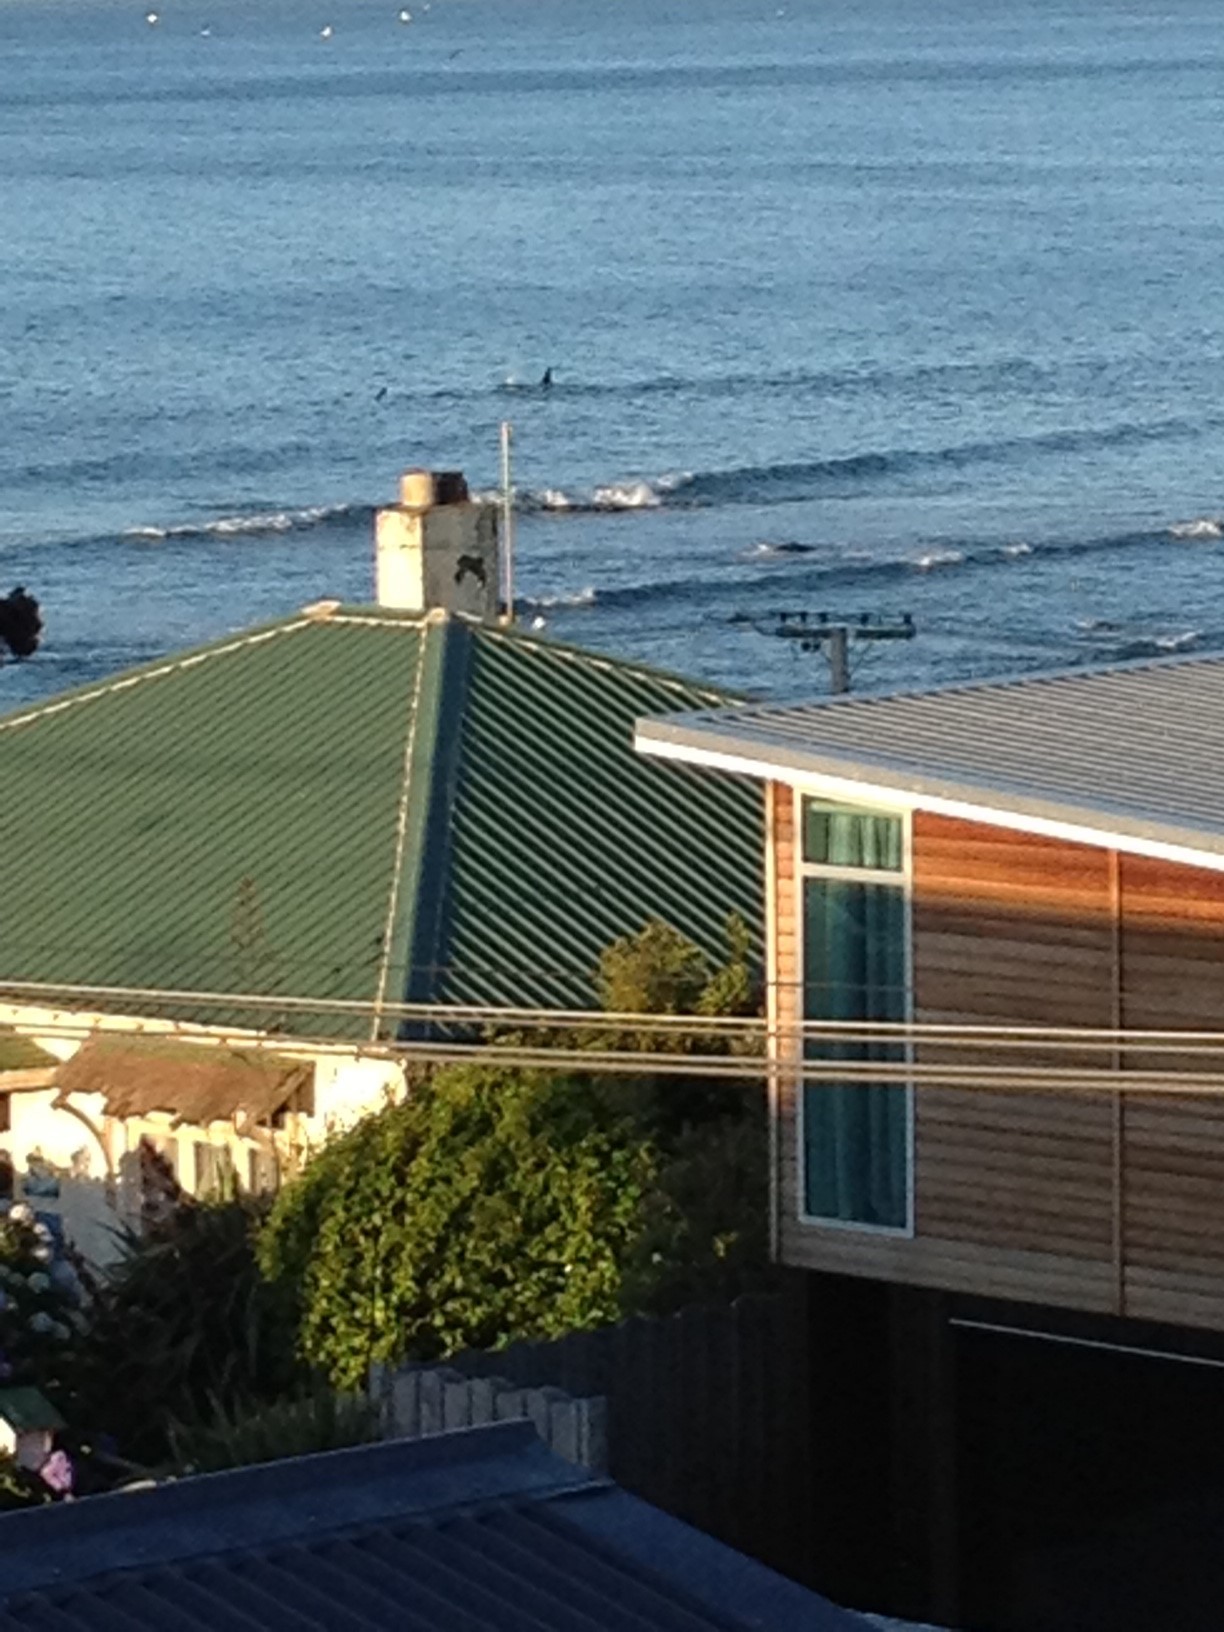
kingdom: Animalia
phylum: Chordata
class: Mammalia
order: Cetacea
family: Delphinidae
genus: Orcinus
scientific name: Orcinus orca
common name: Killer whale
